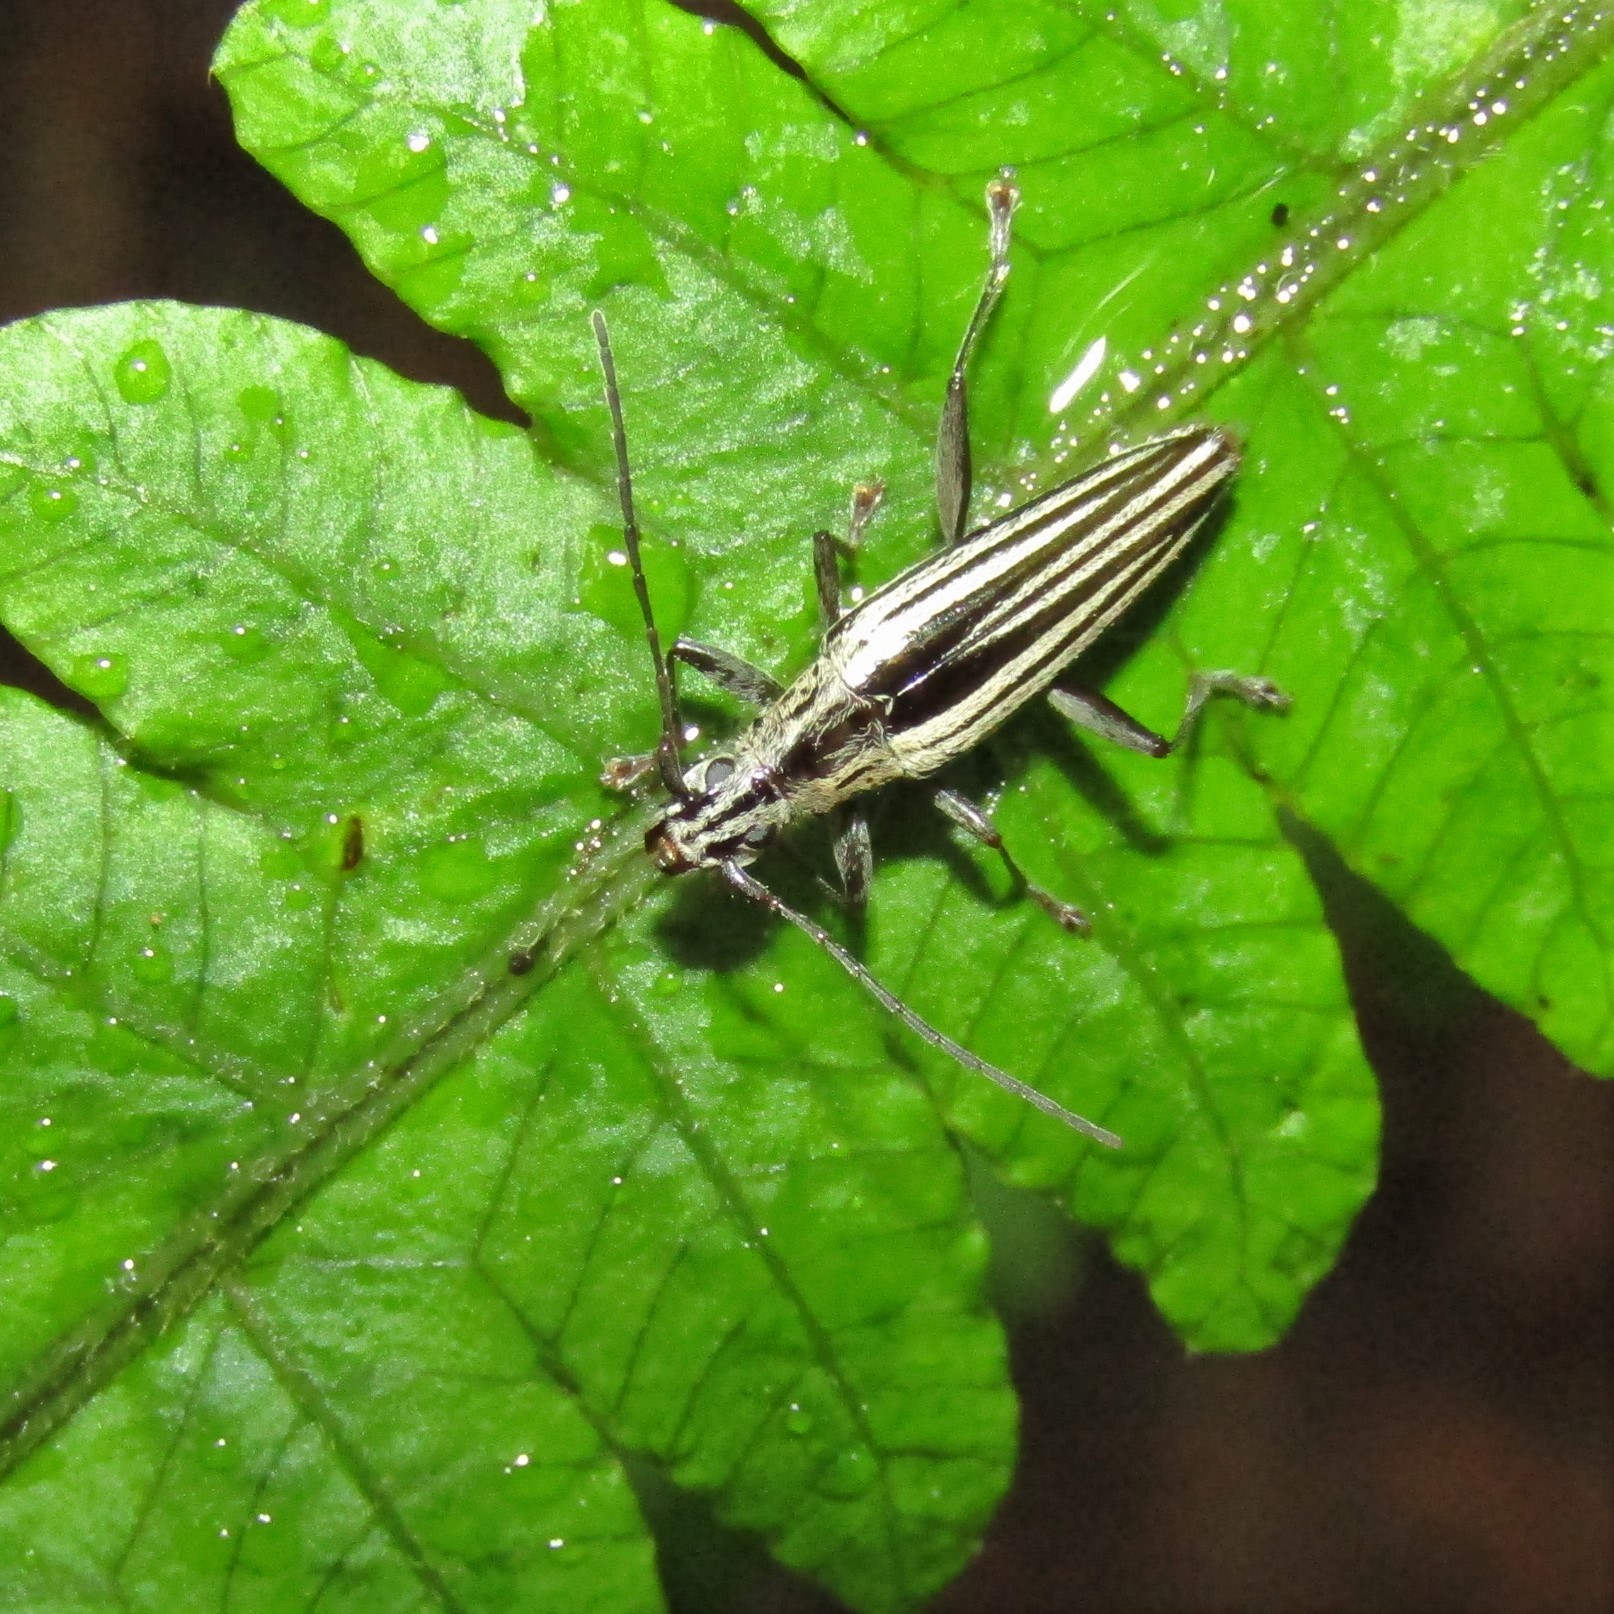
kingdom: Animalia
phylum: Arthropoda
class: Insecta
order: Coleoptera
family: Cerambycidae
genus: Coptomma
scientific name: Coptomma sulcatum
